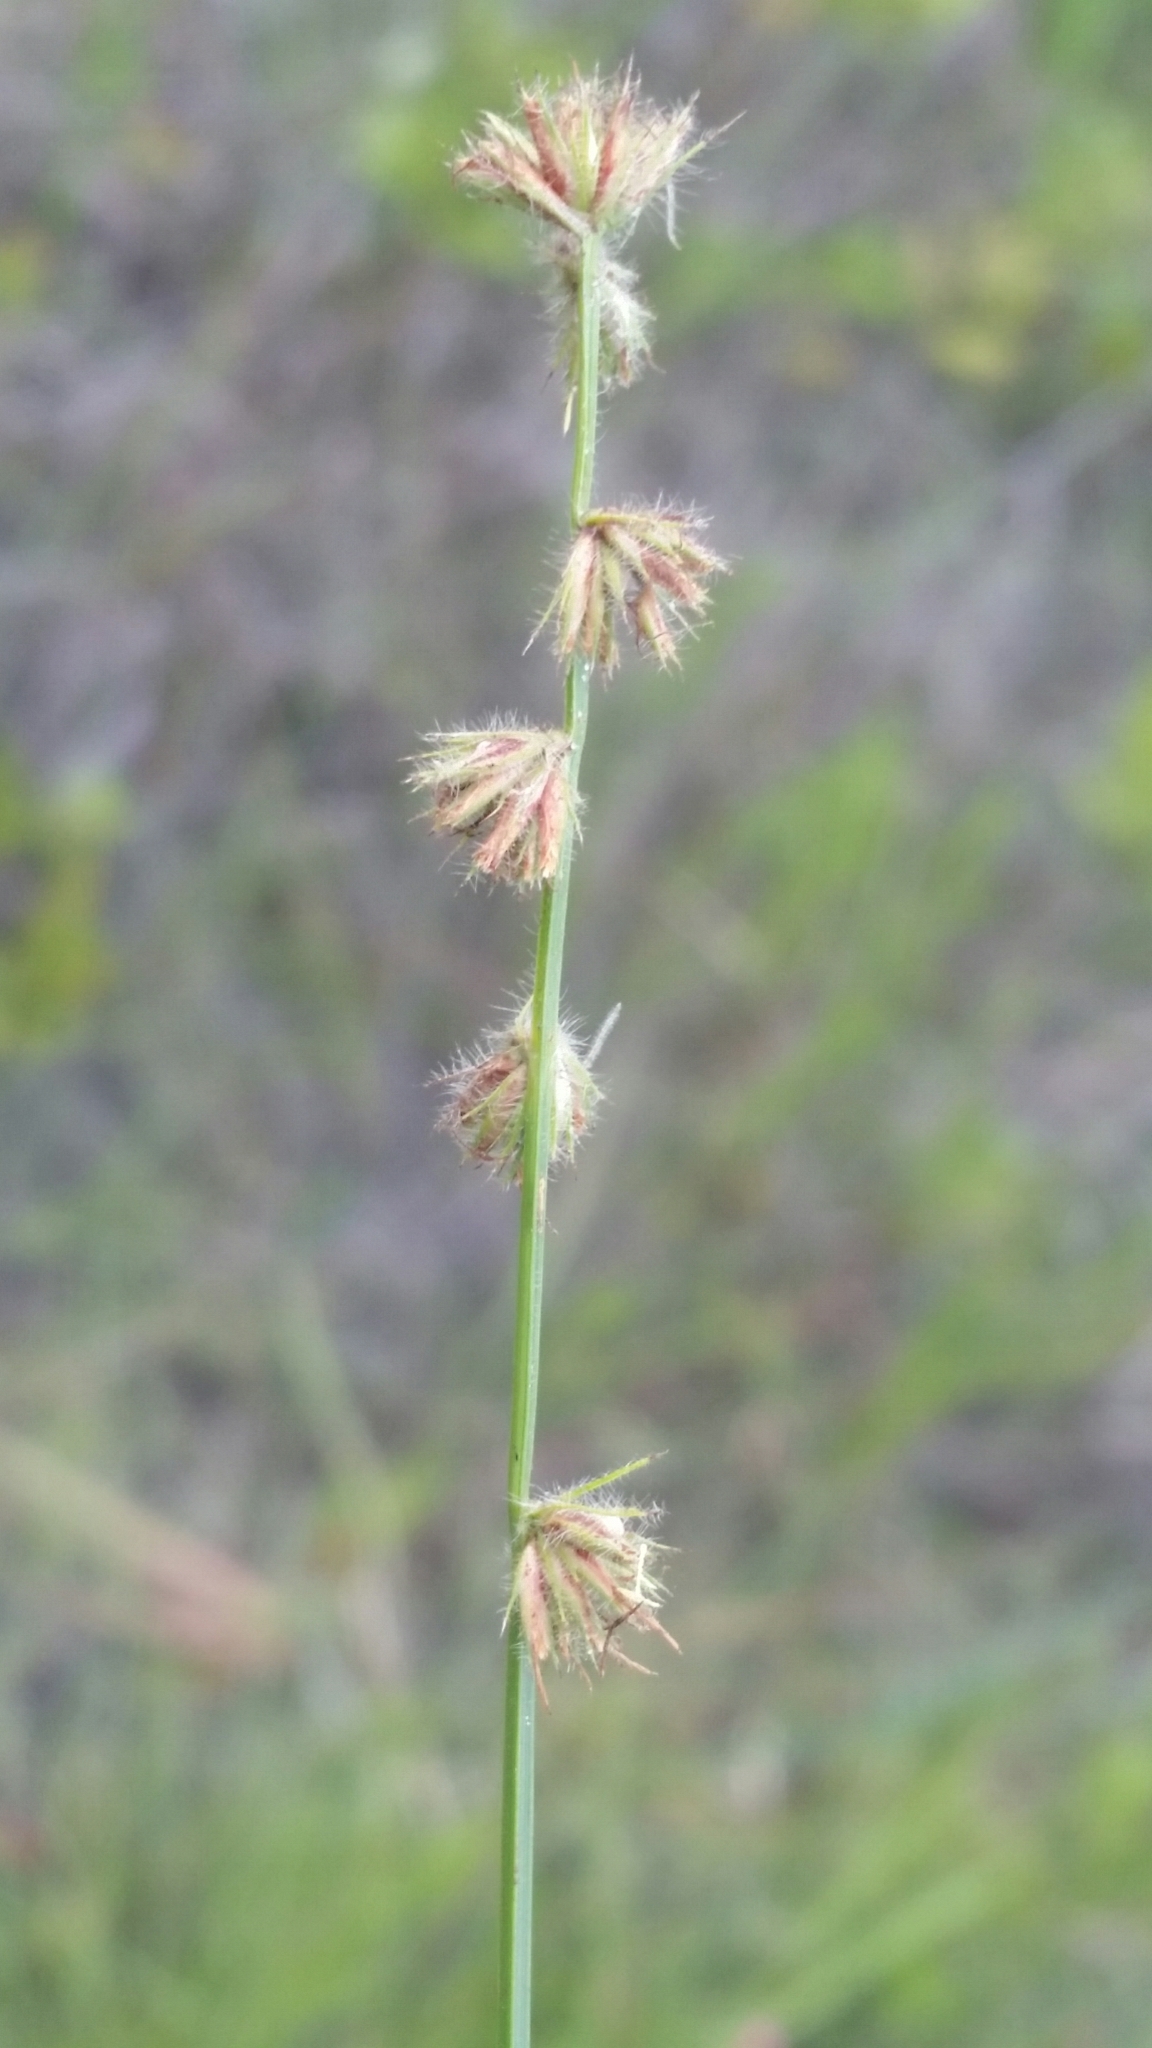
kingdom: Plantae
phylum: Tracheophyta
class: Liliopsida
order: Poales
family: Cyperaceae
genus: Scleria
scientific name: Scleria distans
